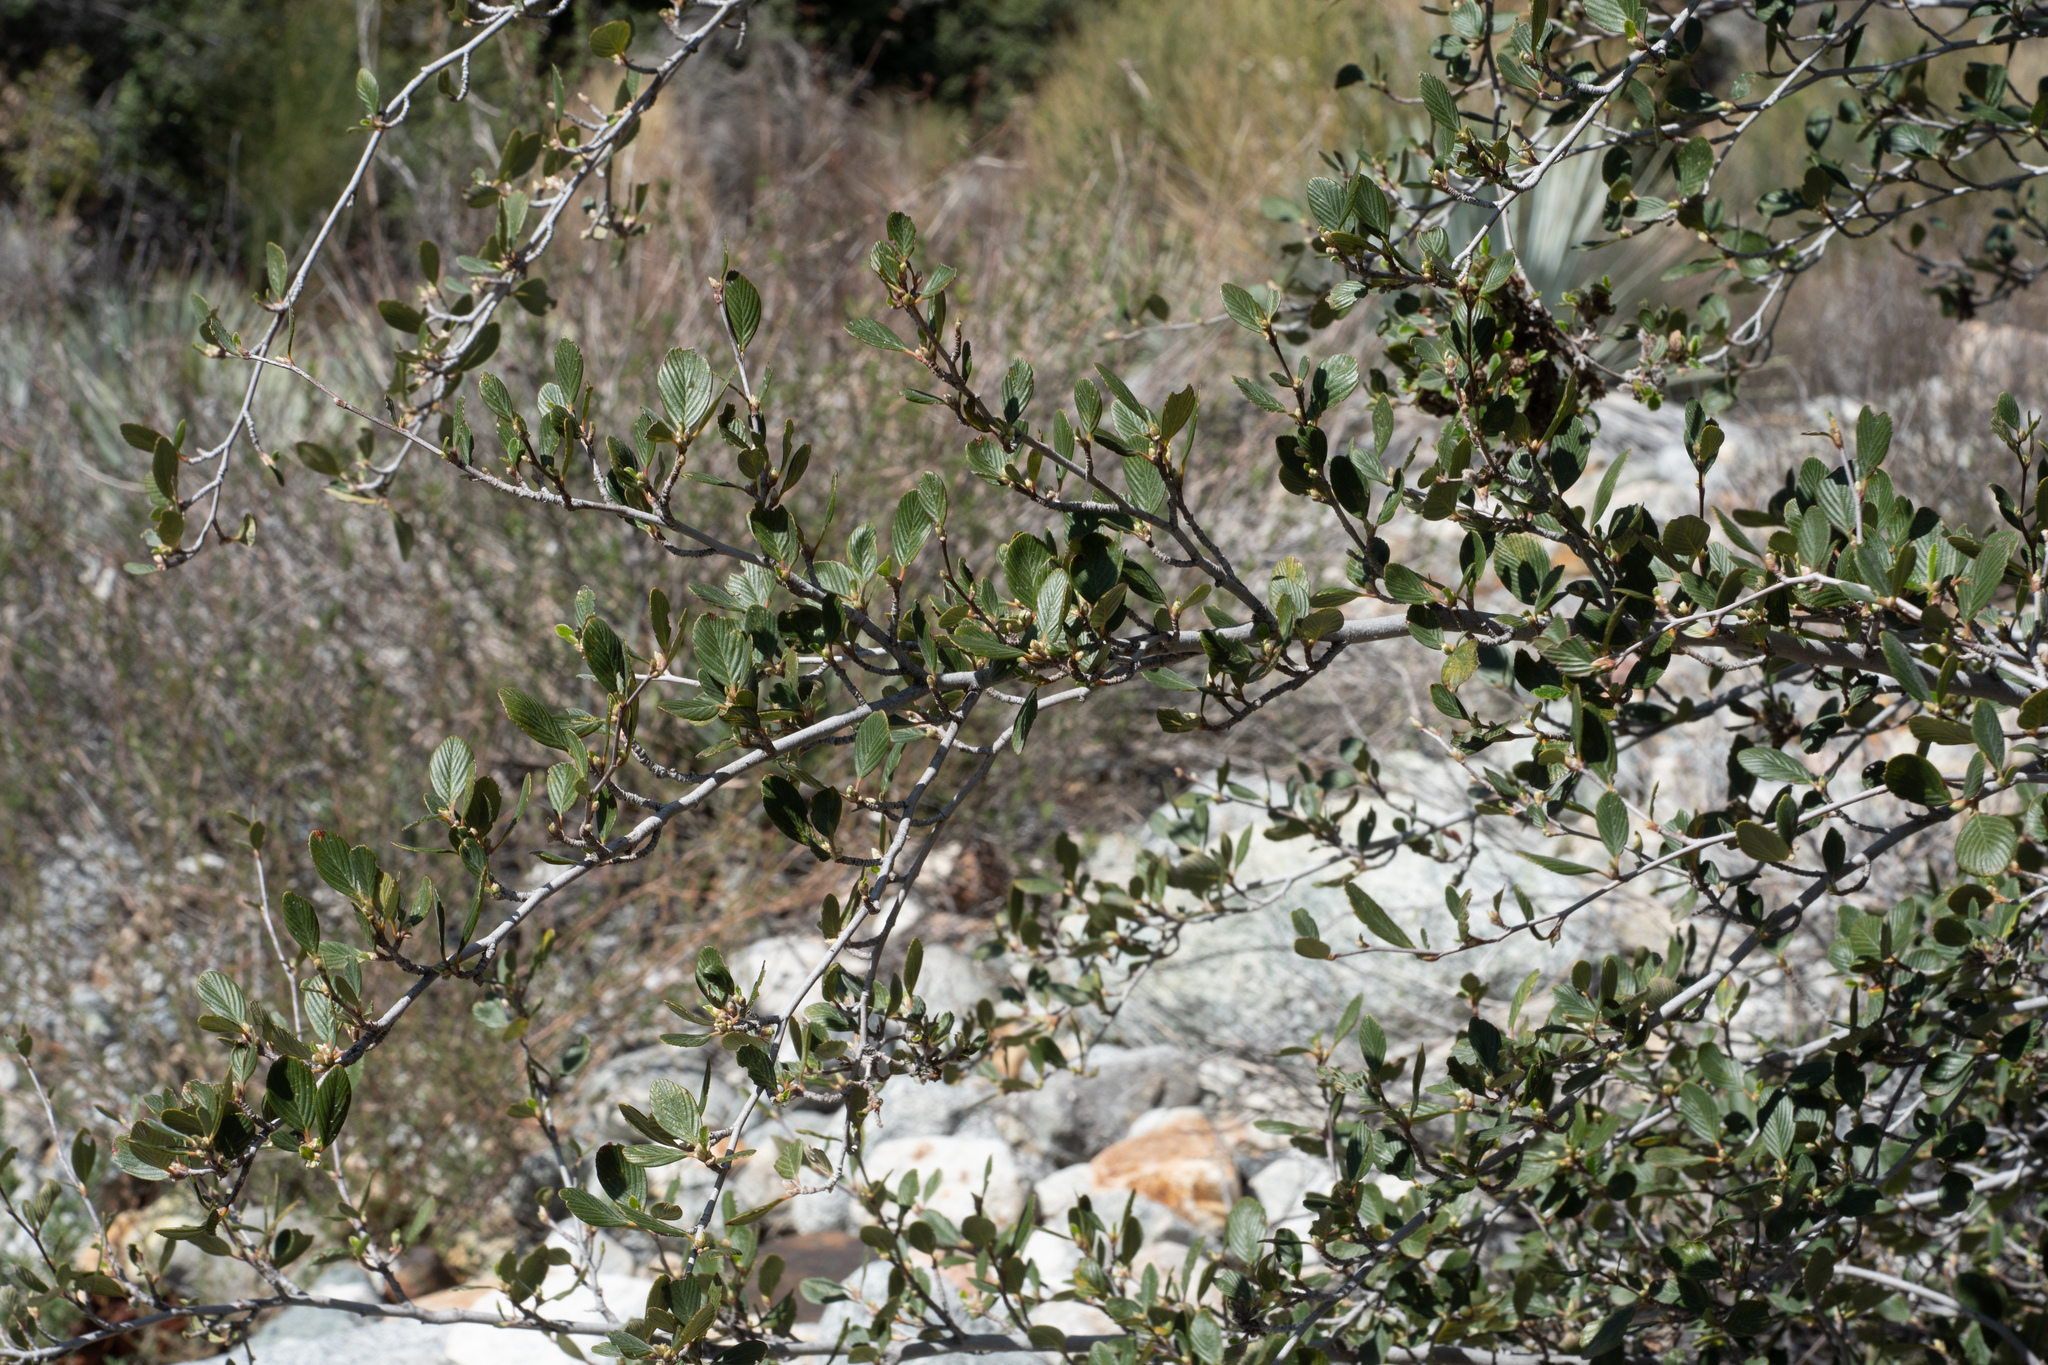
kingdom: Plantae
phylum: Tracheophyta
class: Magnoliopsida
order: Rosales
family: Rosaceae
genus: Cercocarpus
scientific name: Cercocarpus betuloides
